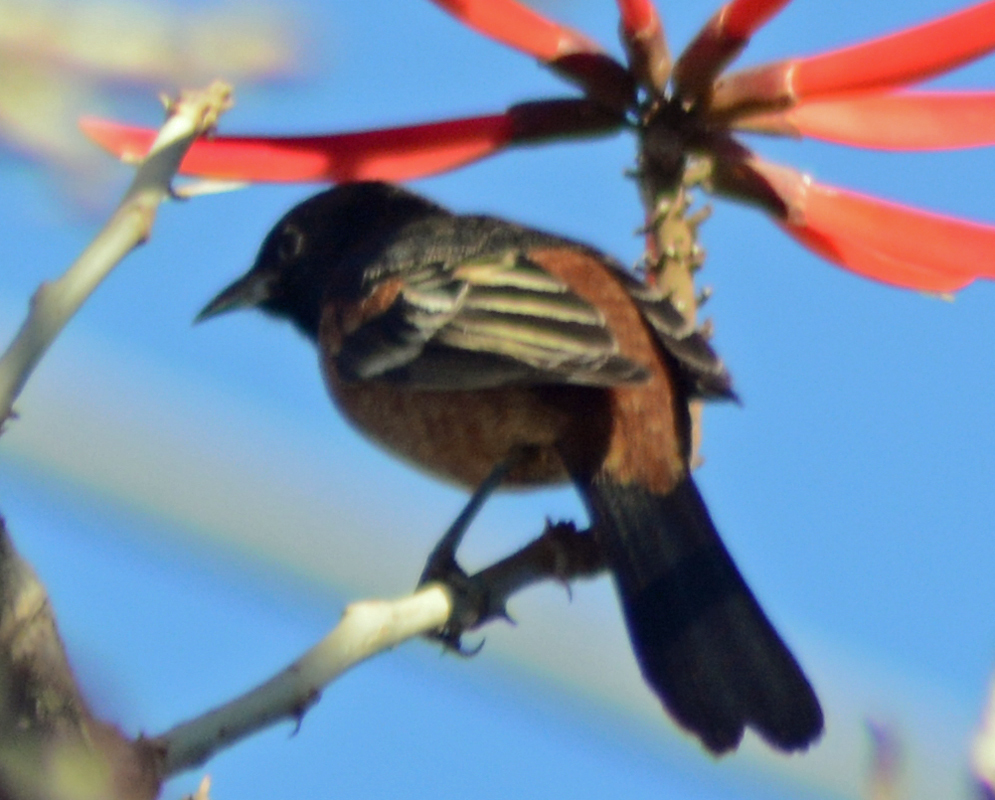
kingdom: Animalia
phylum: Chordata
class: Aves
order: Passeriformes
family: Icteridae
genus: Icterus
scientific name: Icterus spurius
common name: Orchard oriole
